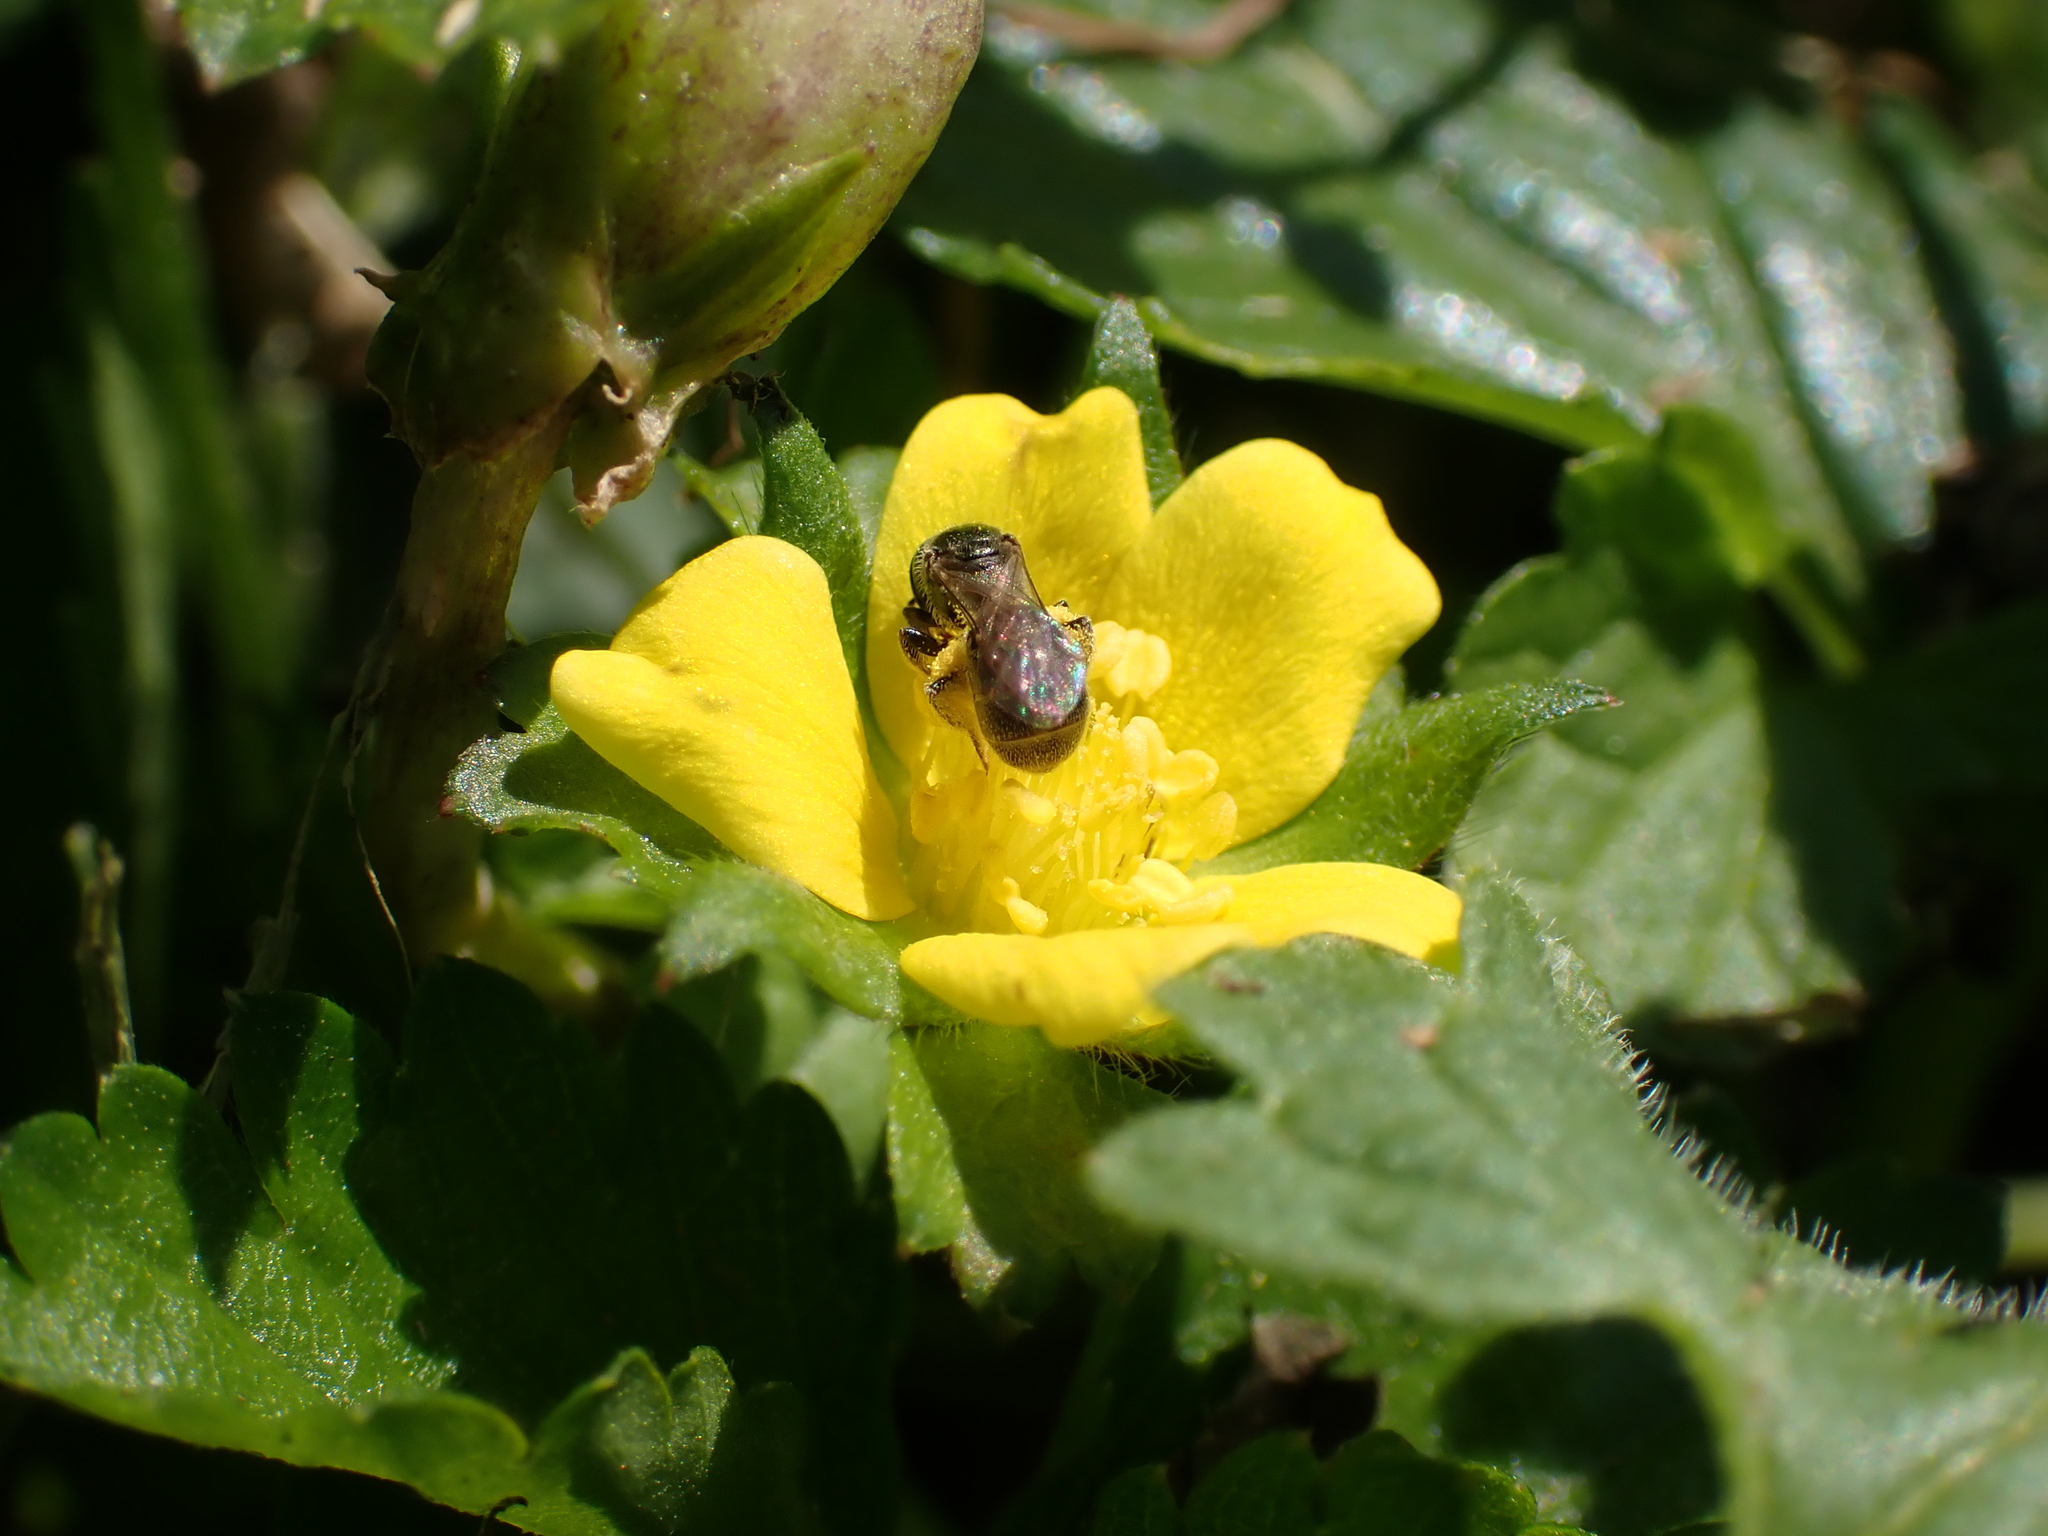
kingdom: Plantae
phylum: Tracheophyta
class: Magnoliopsida
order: Rosales
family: Rosaceae
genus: Potentilla
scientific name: Potentilla indica
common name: Yellow-flowered strawberry
